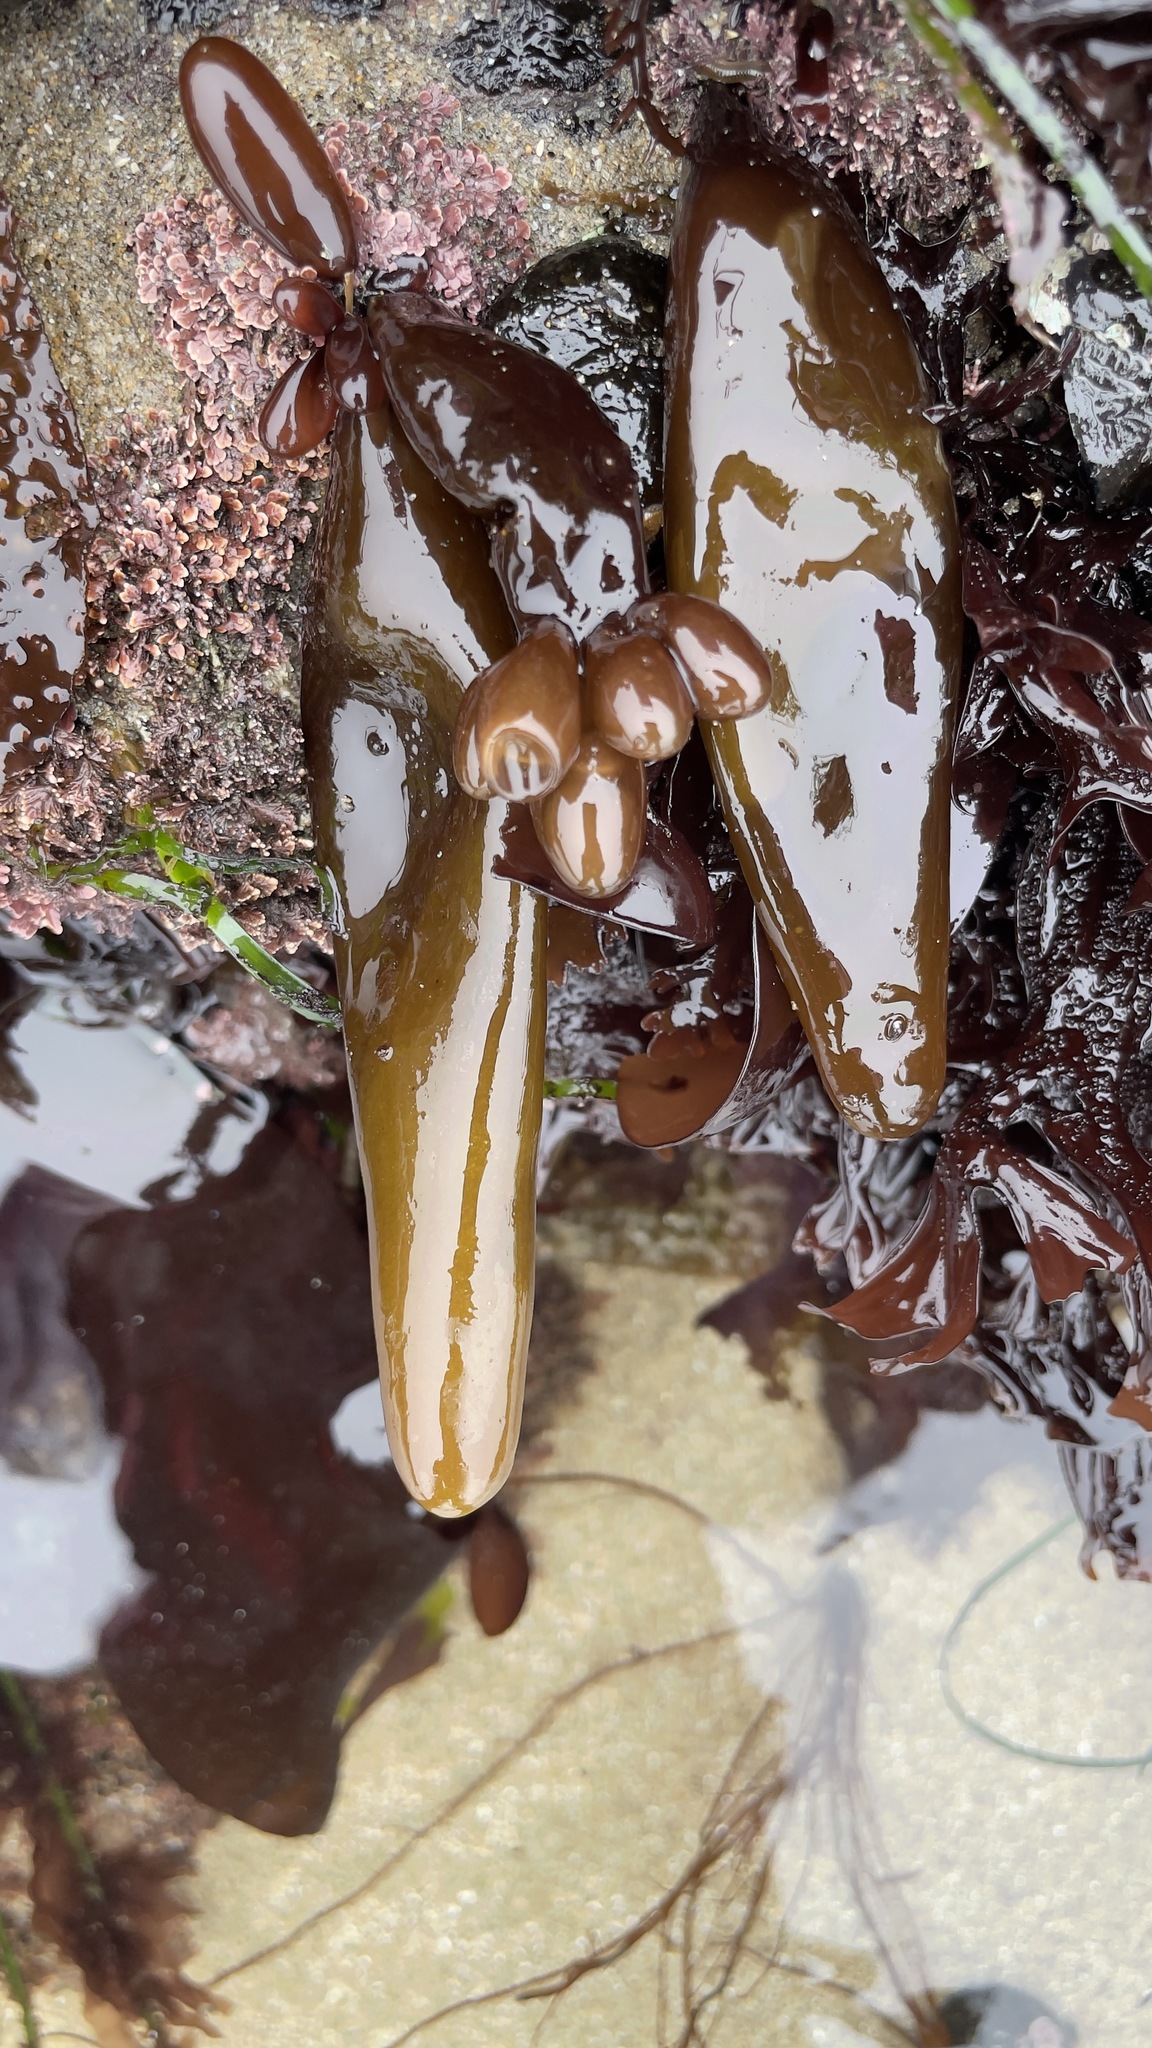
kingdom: Plantae
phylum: Rhodophyta
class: Florideophyceae
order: Palmariales
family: Palmariaceae
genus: Halosaccion
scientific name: Halosaccion glandiforme
